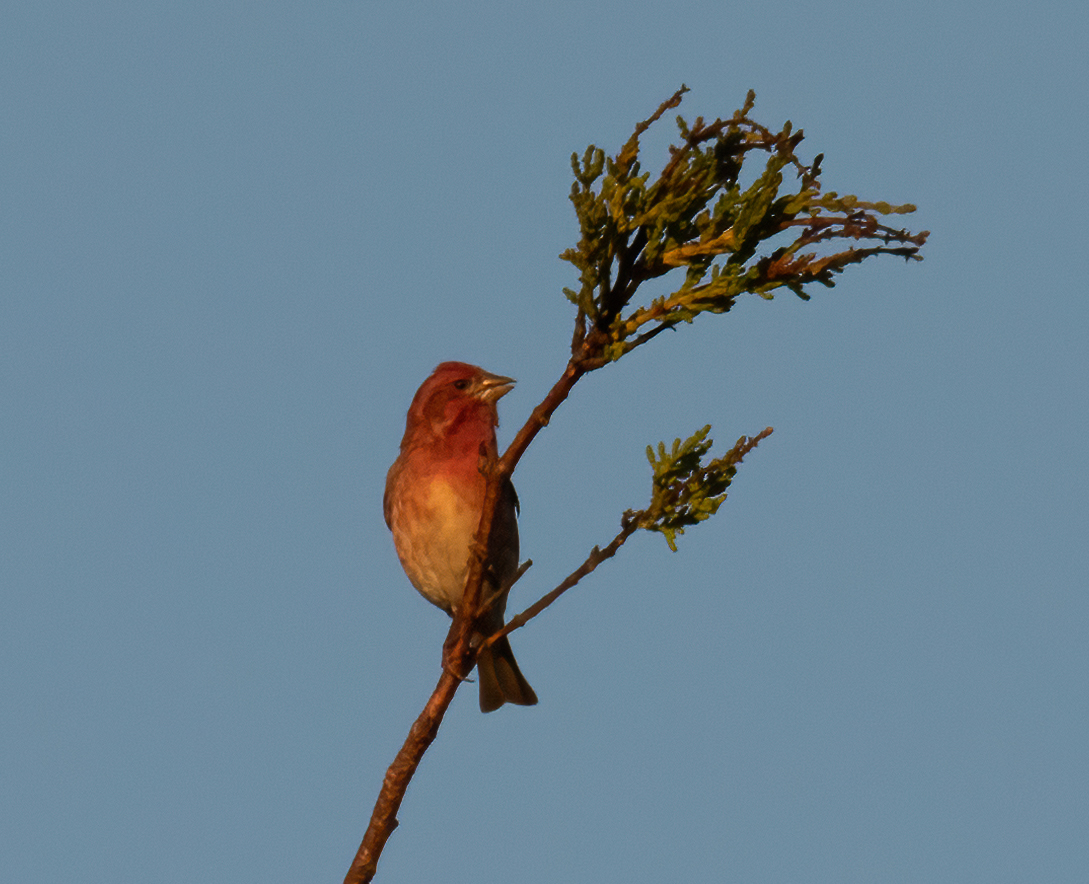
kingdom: Animalia
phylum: Chordata
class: Aves
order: Passeriformes
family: Fringillidae
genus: Haemorhous
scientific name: Haemorhous purpureus
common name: Purple finch
